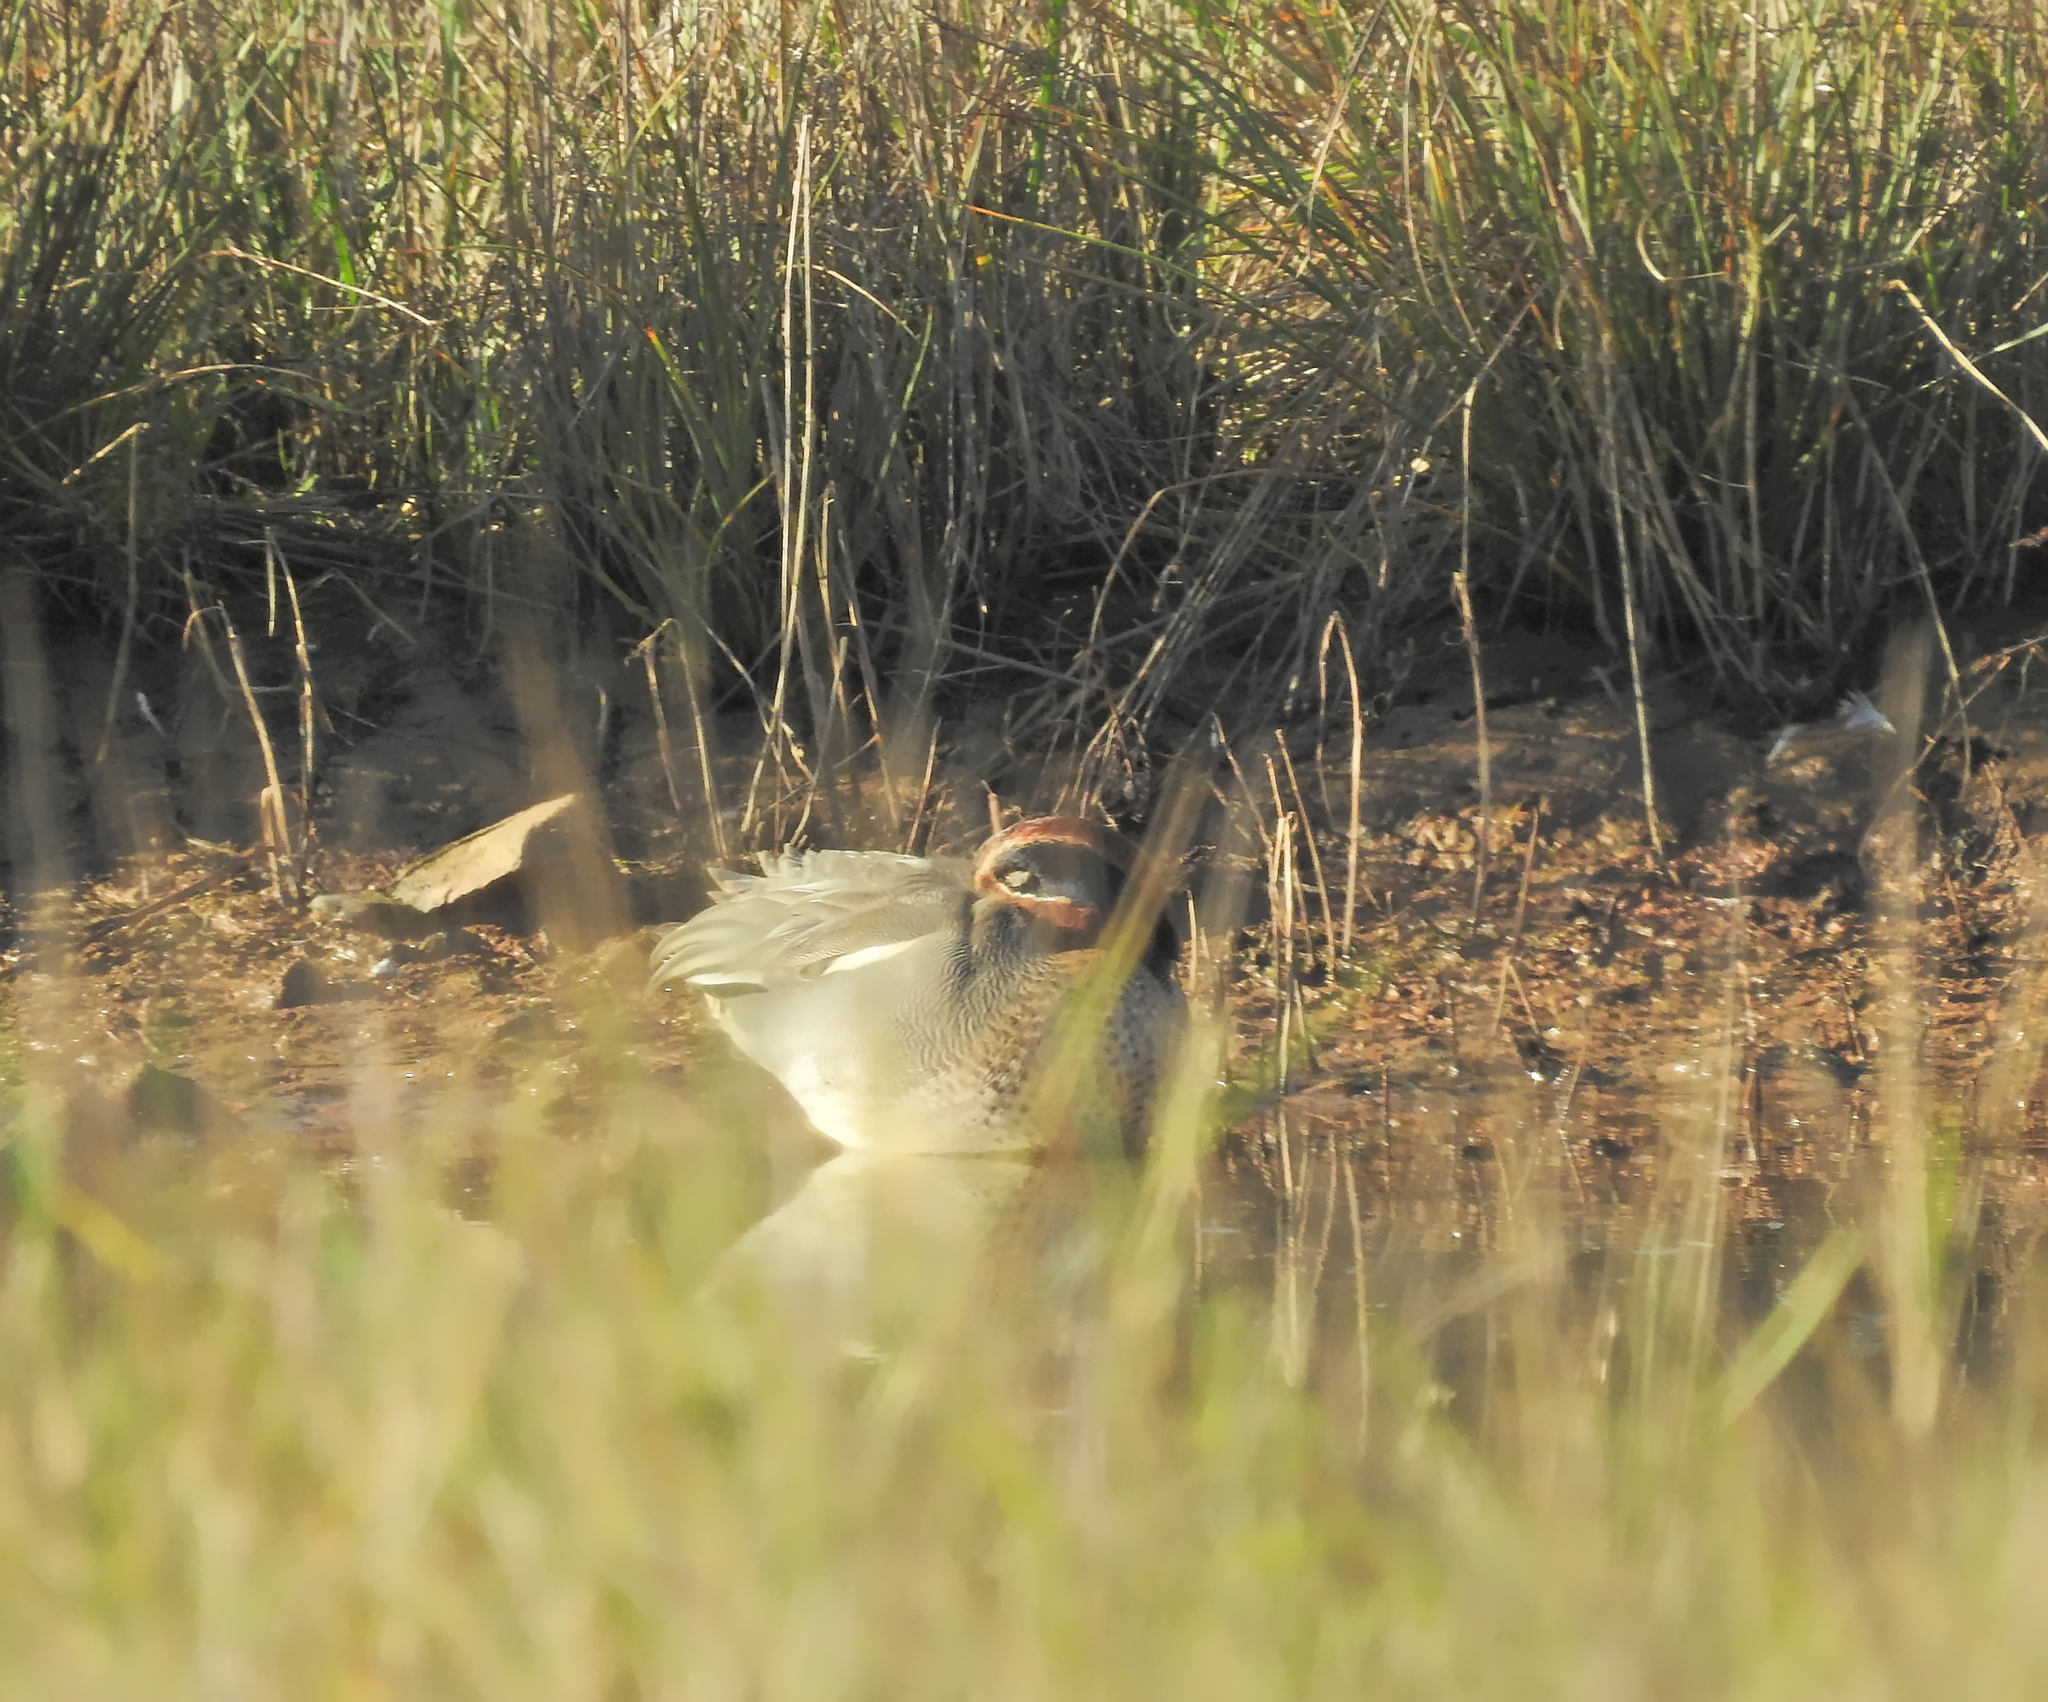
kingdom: Animalia
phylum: Chordata
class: Aves
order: Anseriformes
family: Anatidae
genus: Anas
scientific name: Anas crecca
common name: Eurasian teal
